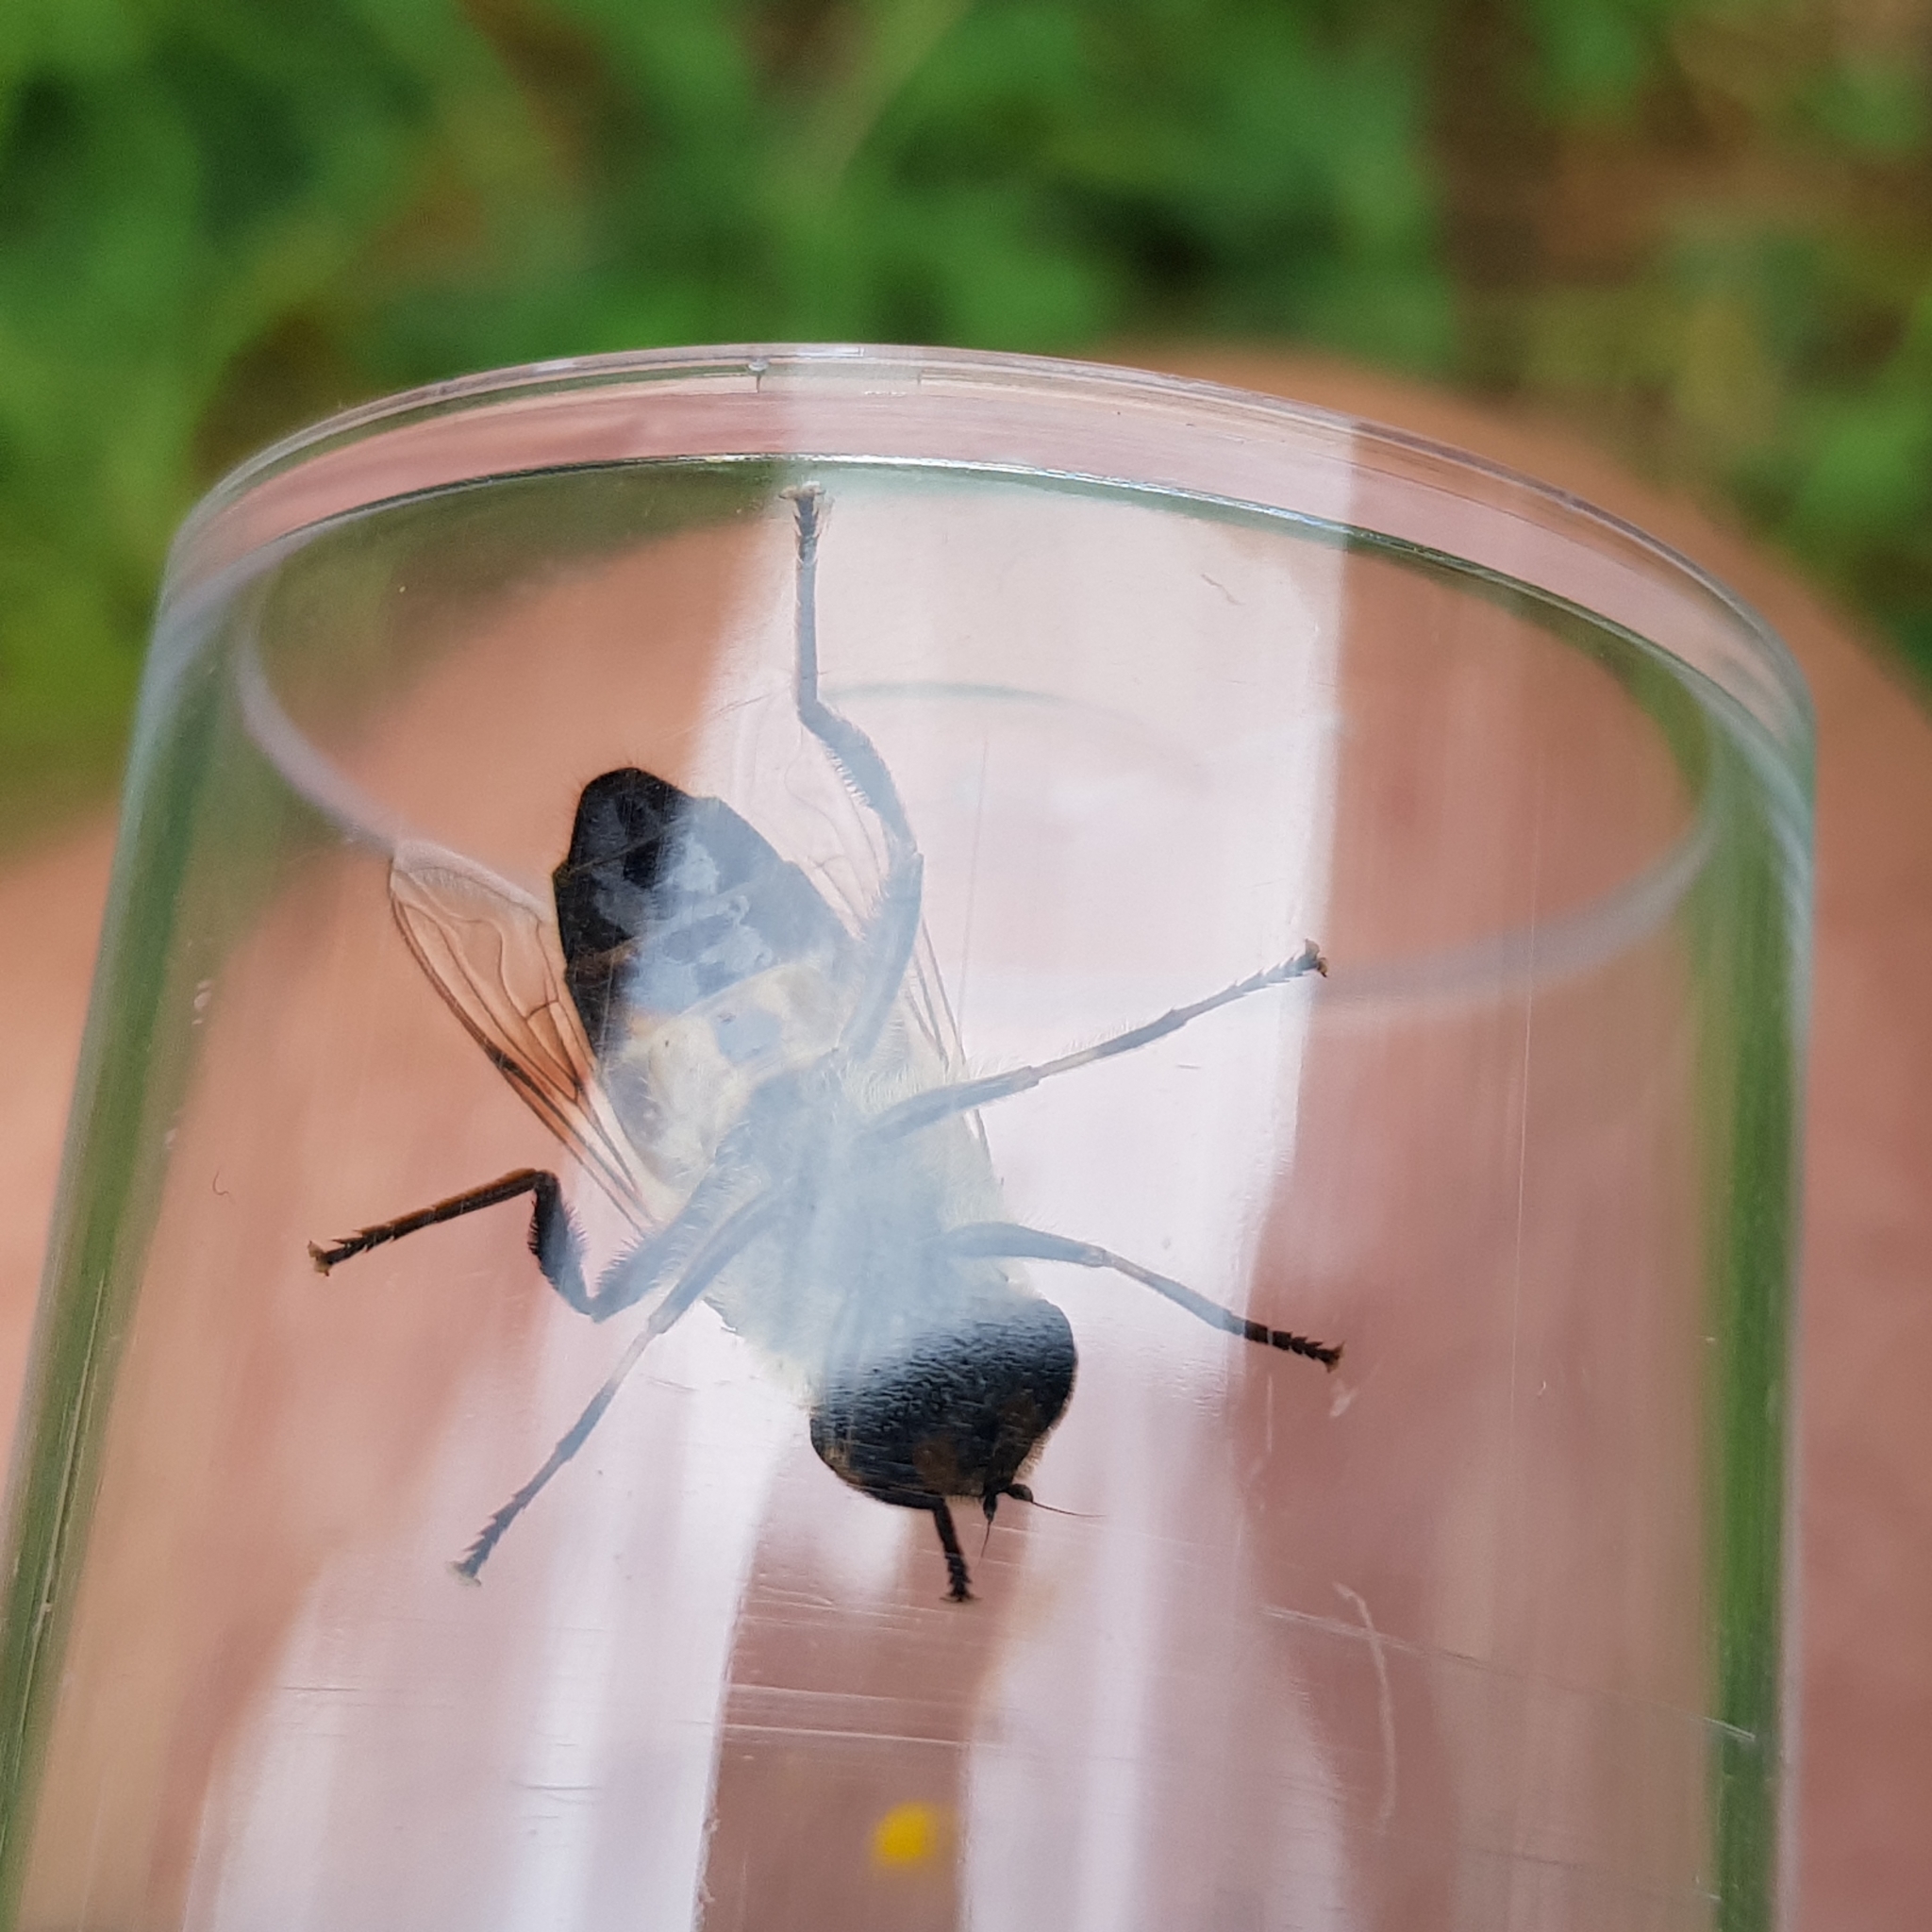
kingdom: Animalia
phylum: Arthropoda
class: Insecta
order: Diptera
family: Syrphidae
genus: Eristalis
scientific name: Eristalis tenax
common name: Drone fly
